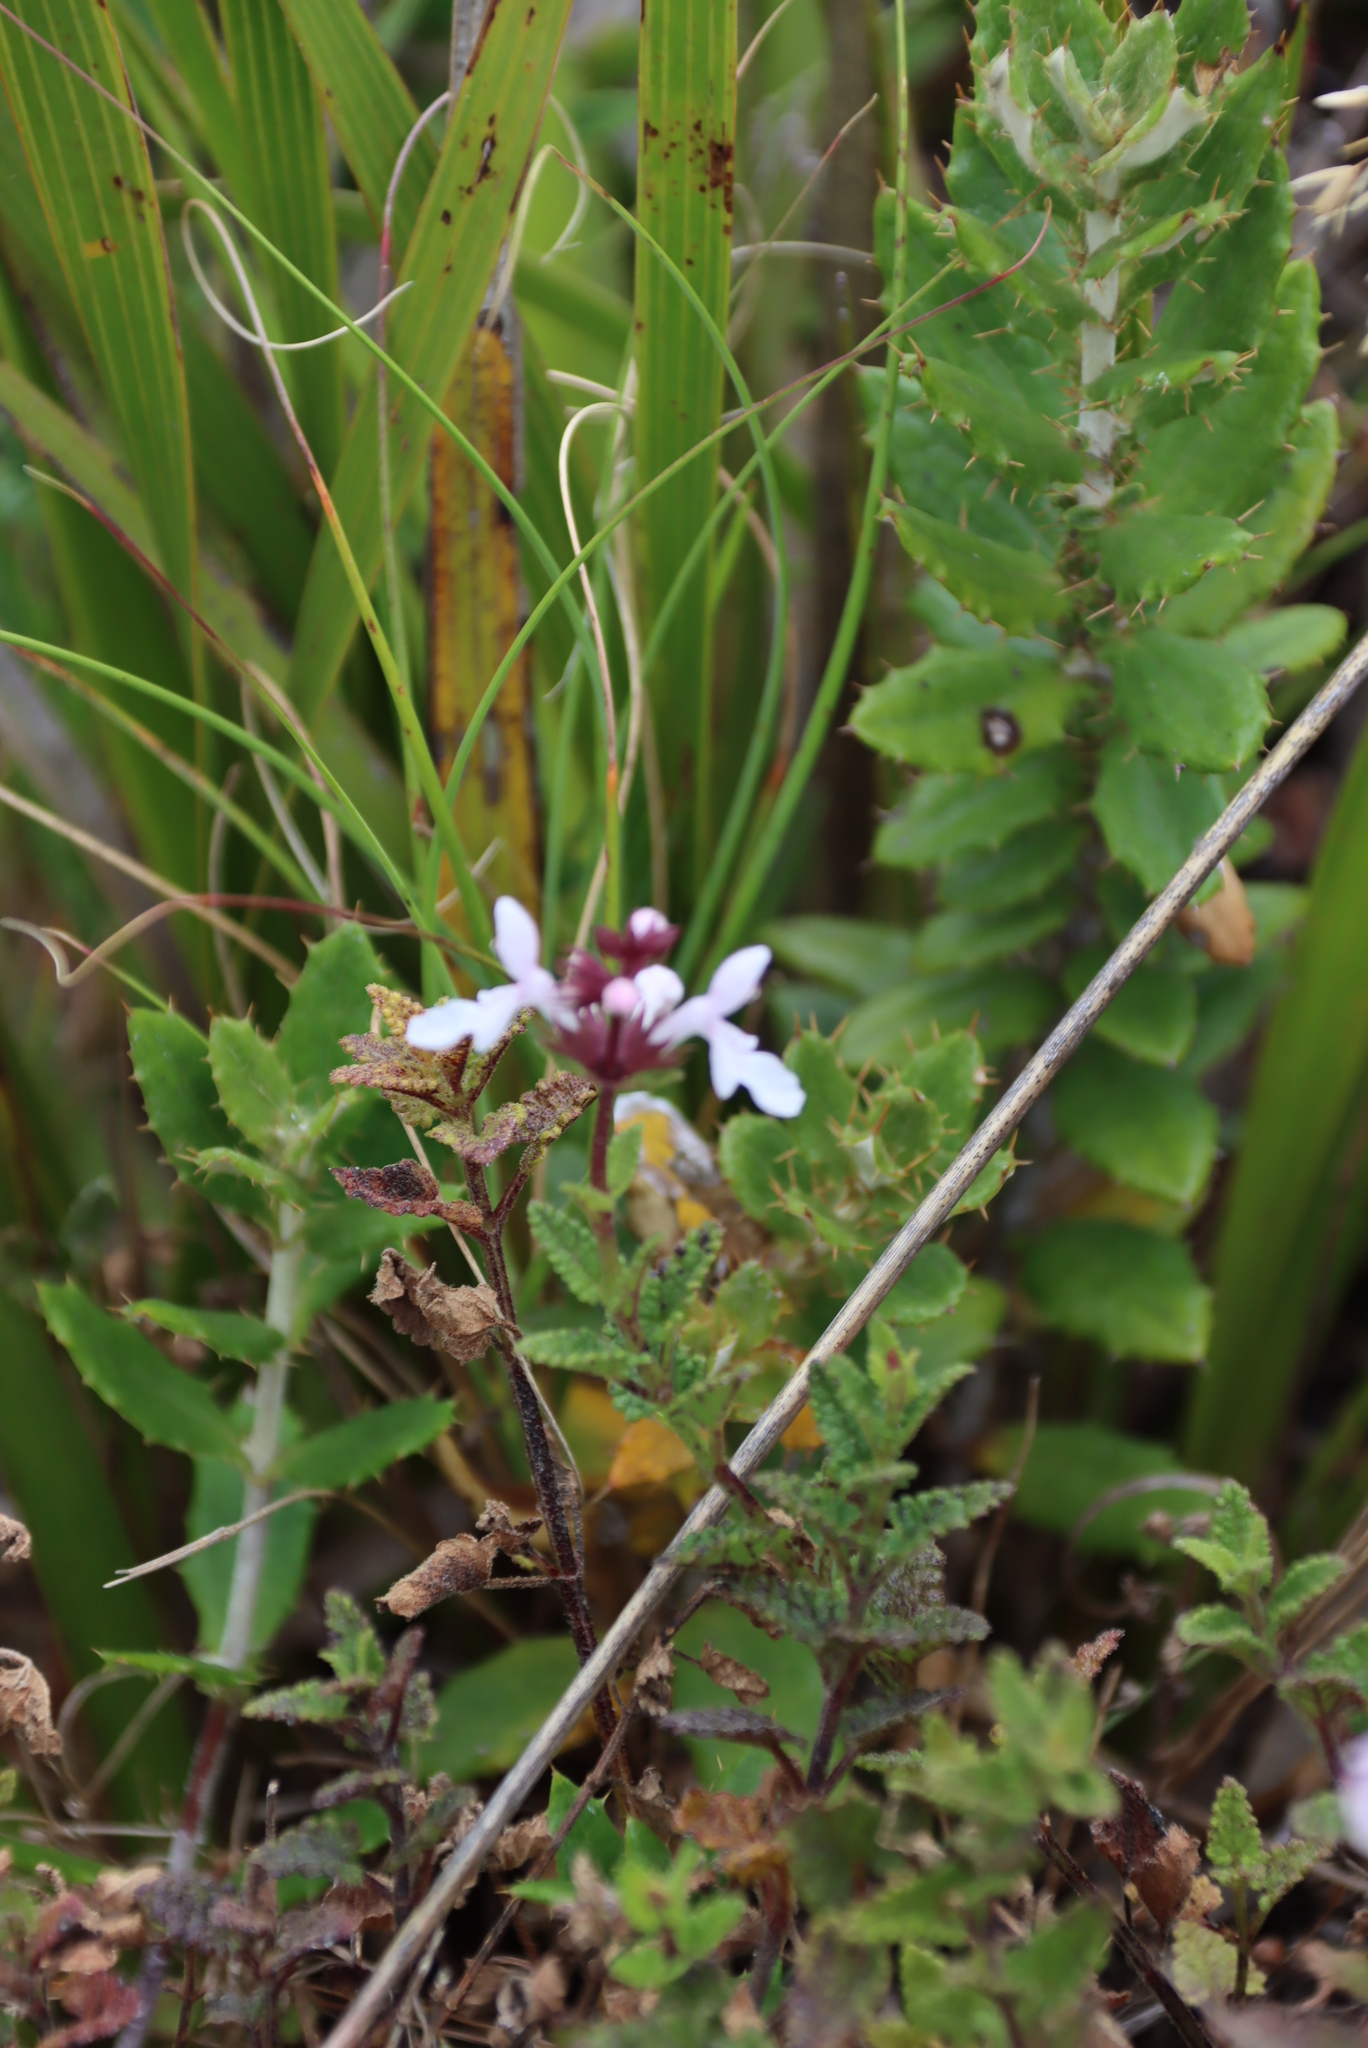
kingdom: Plantae
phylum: Tracheophyta
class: Magnoliopsida
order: Lamiales
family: Lamiaceae
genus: Stachys
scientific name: Stachys aethiopica
